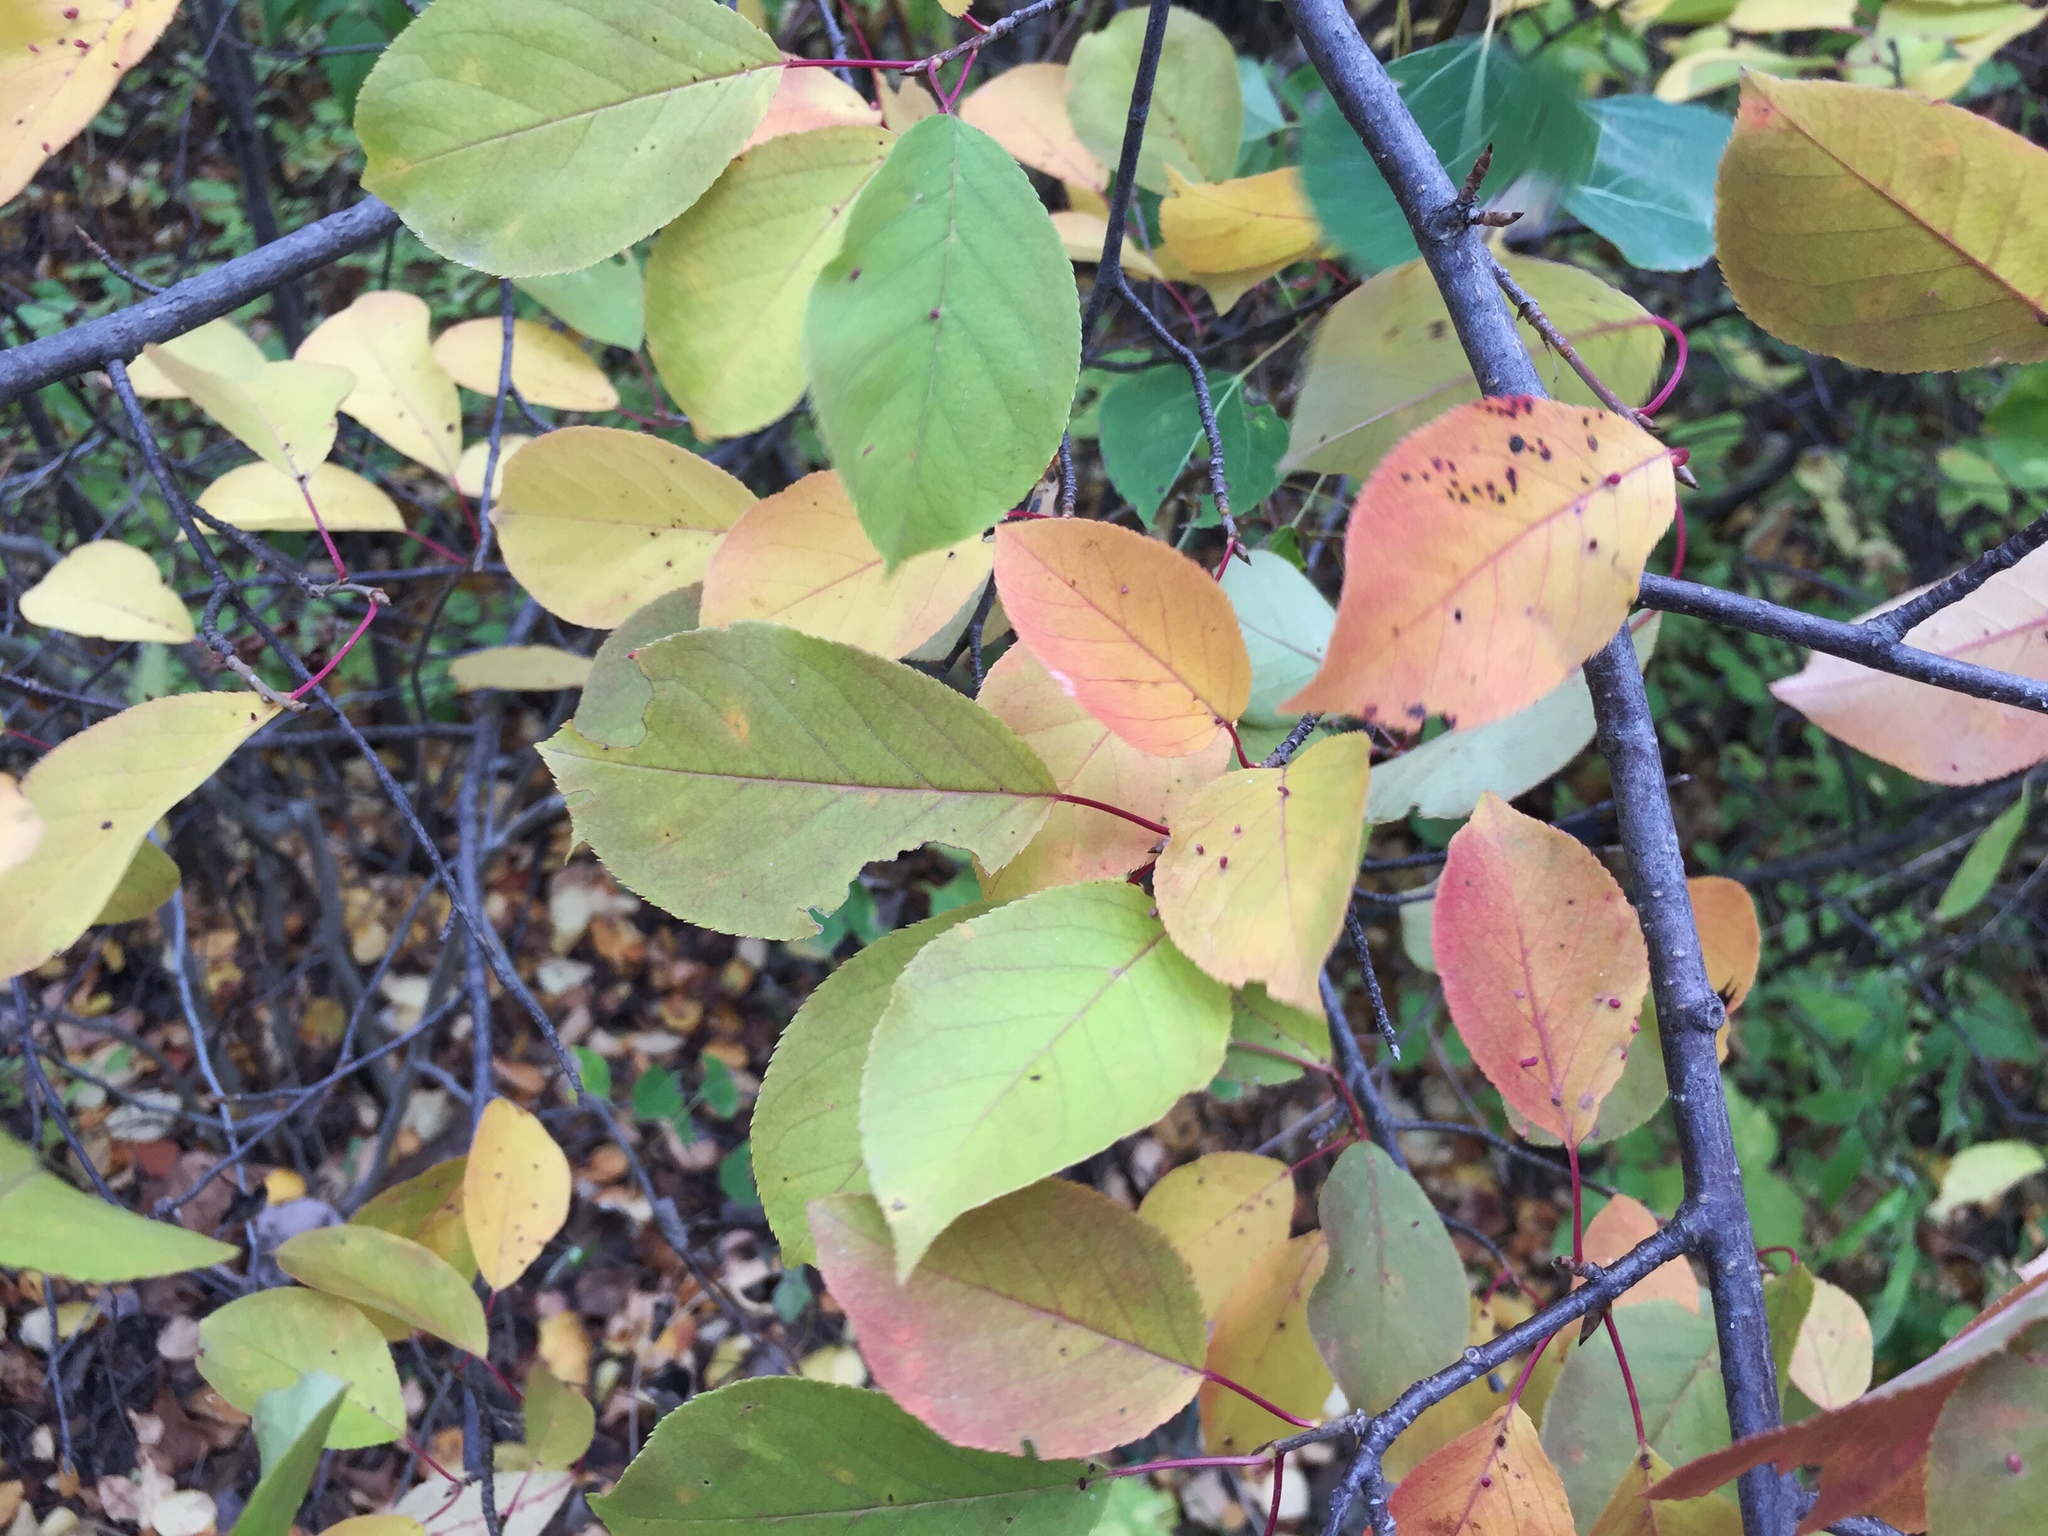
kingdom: Plantae
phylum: Tracheophyta
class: Magnoliopsida
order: Rosales
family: Rosaceae
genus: Prunus
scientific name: Prunus virginiana
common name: Chokecherry
